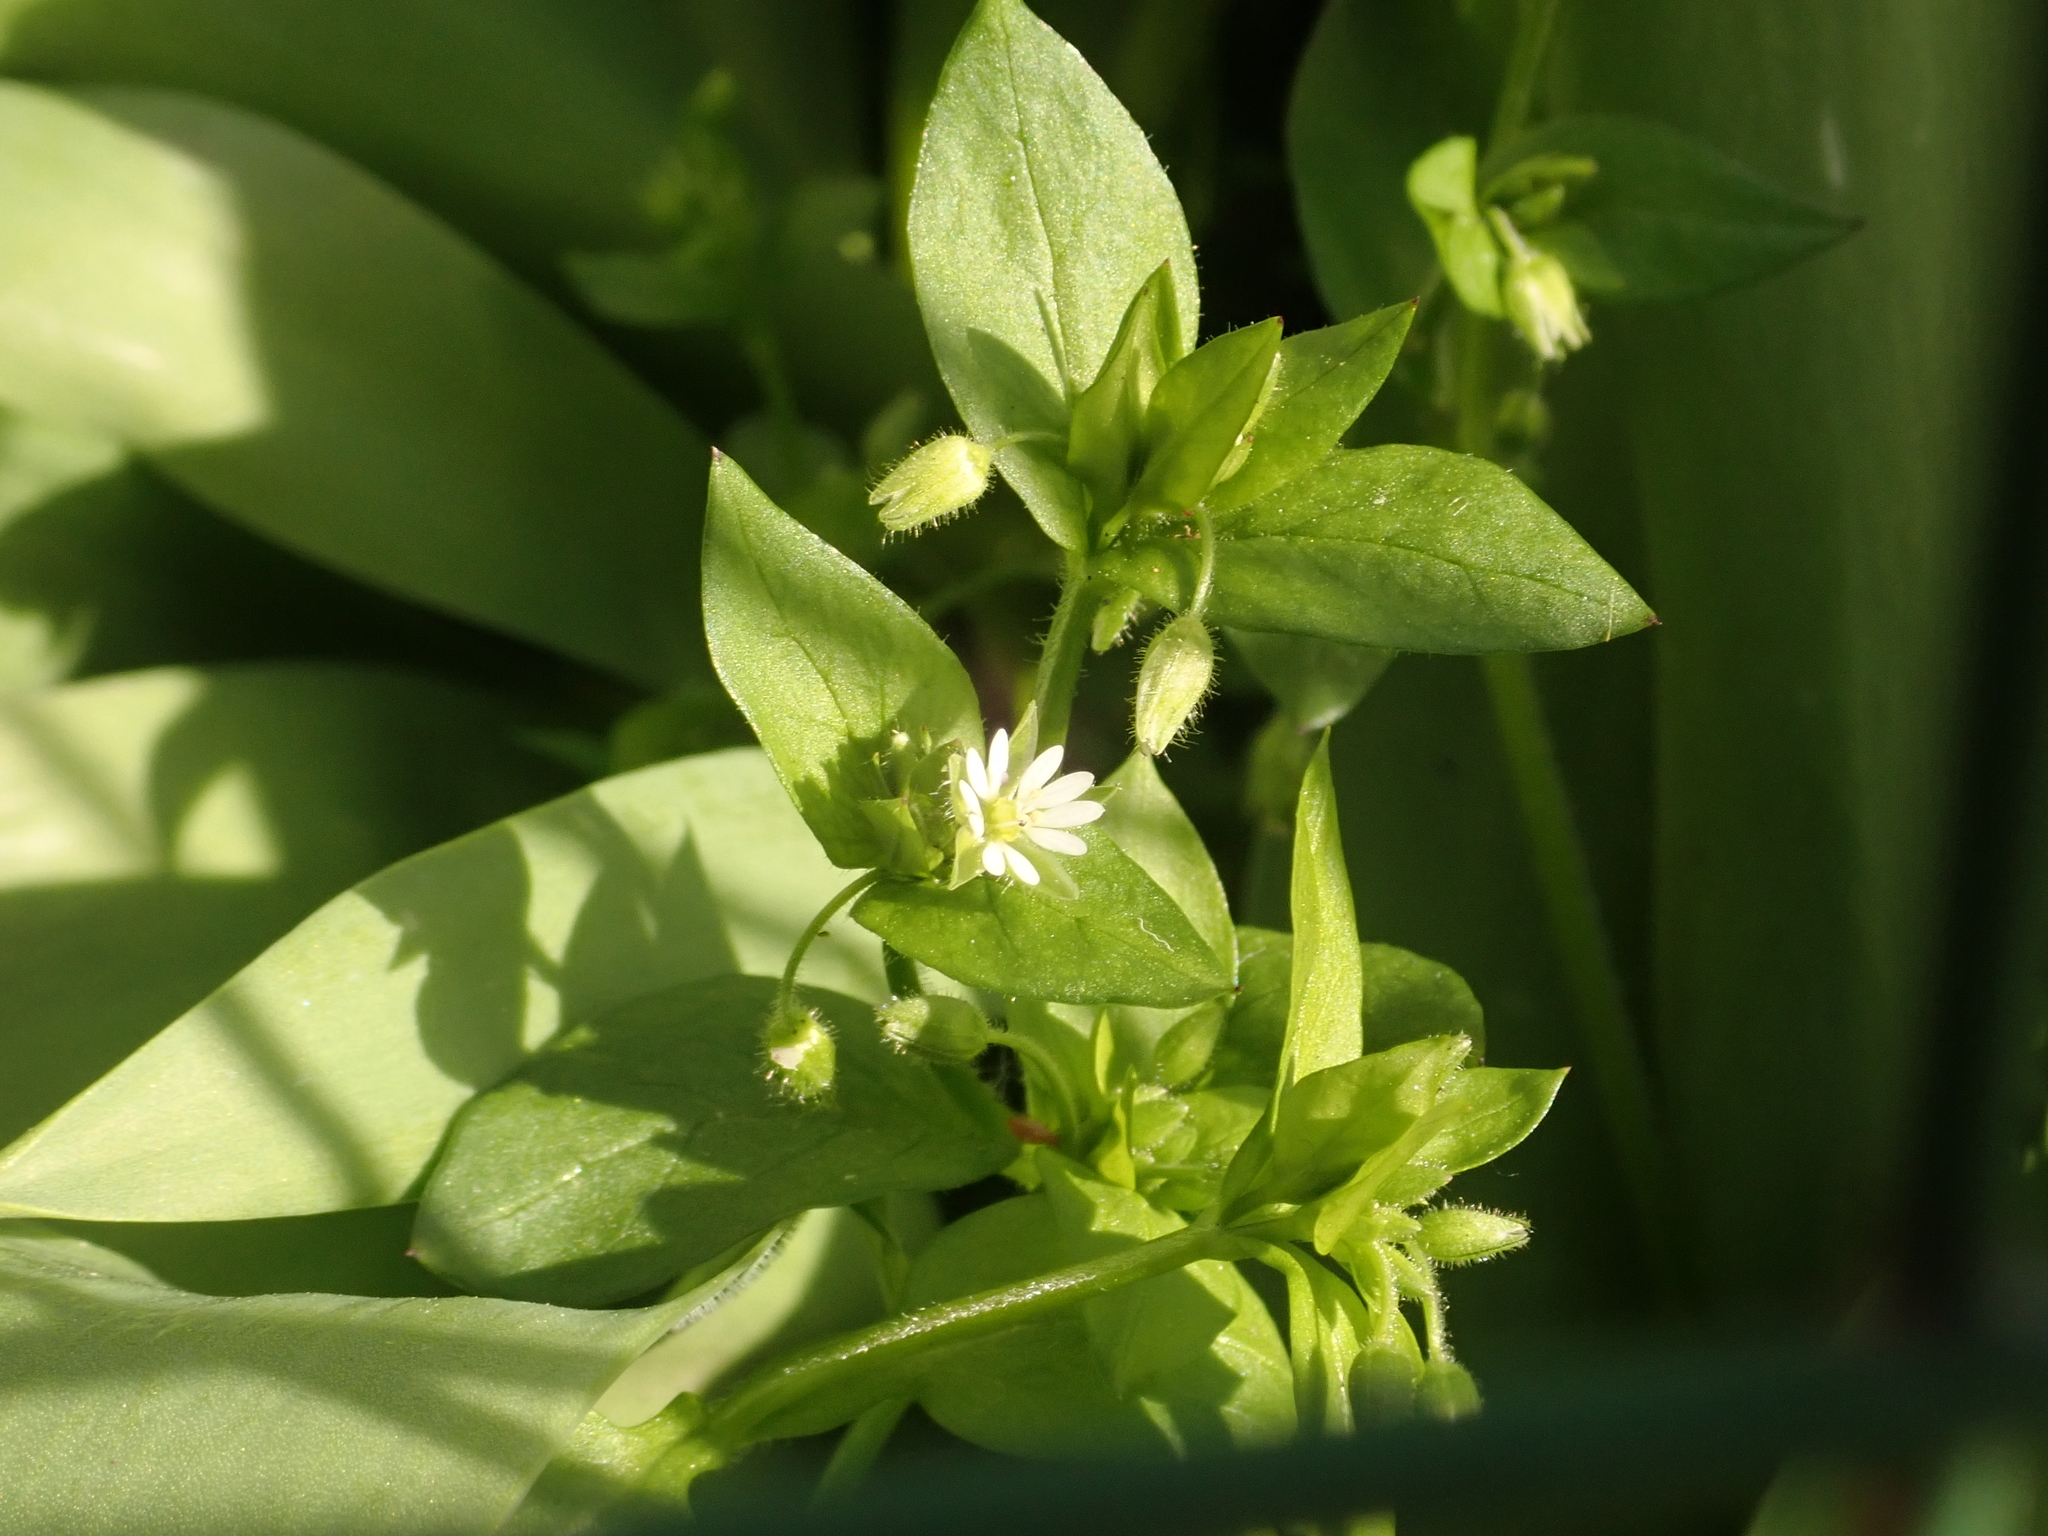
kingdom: Plantae
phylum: Tracheophyta
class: Magnoliopsida
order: Caryophyllales
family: Caryophyllaceae
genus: Stellaria
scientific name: Stellaria media
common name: Common chickweed
